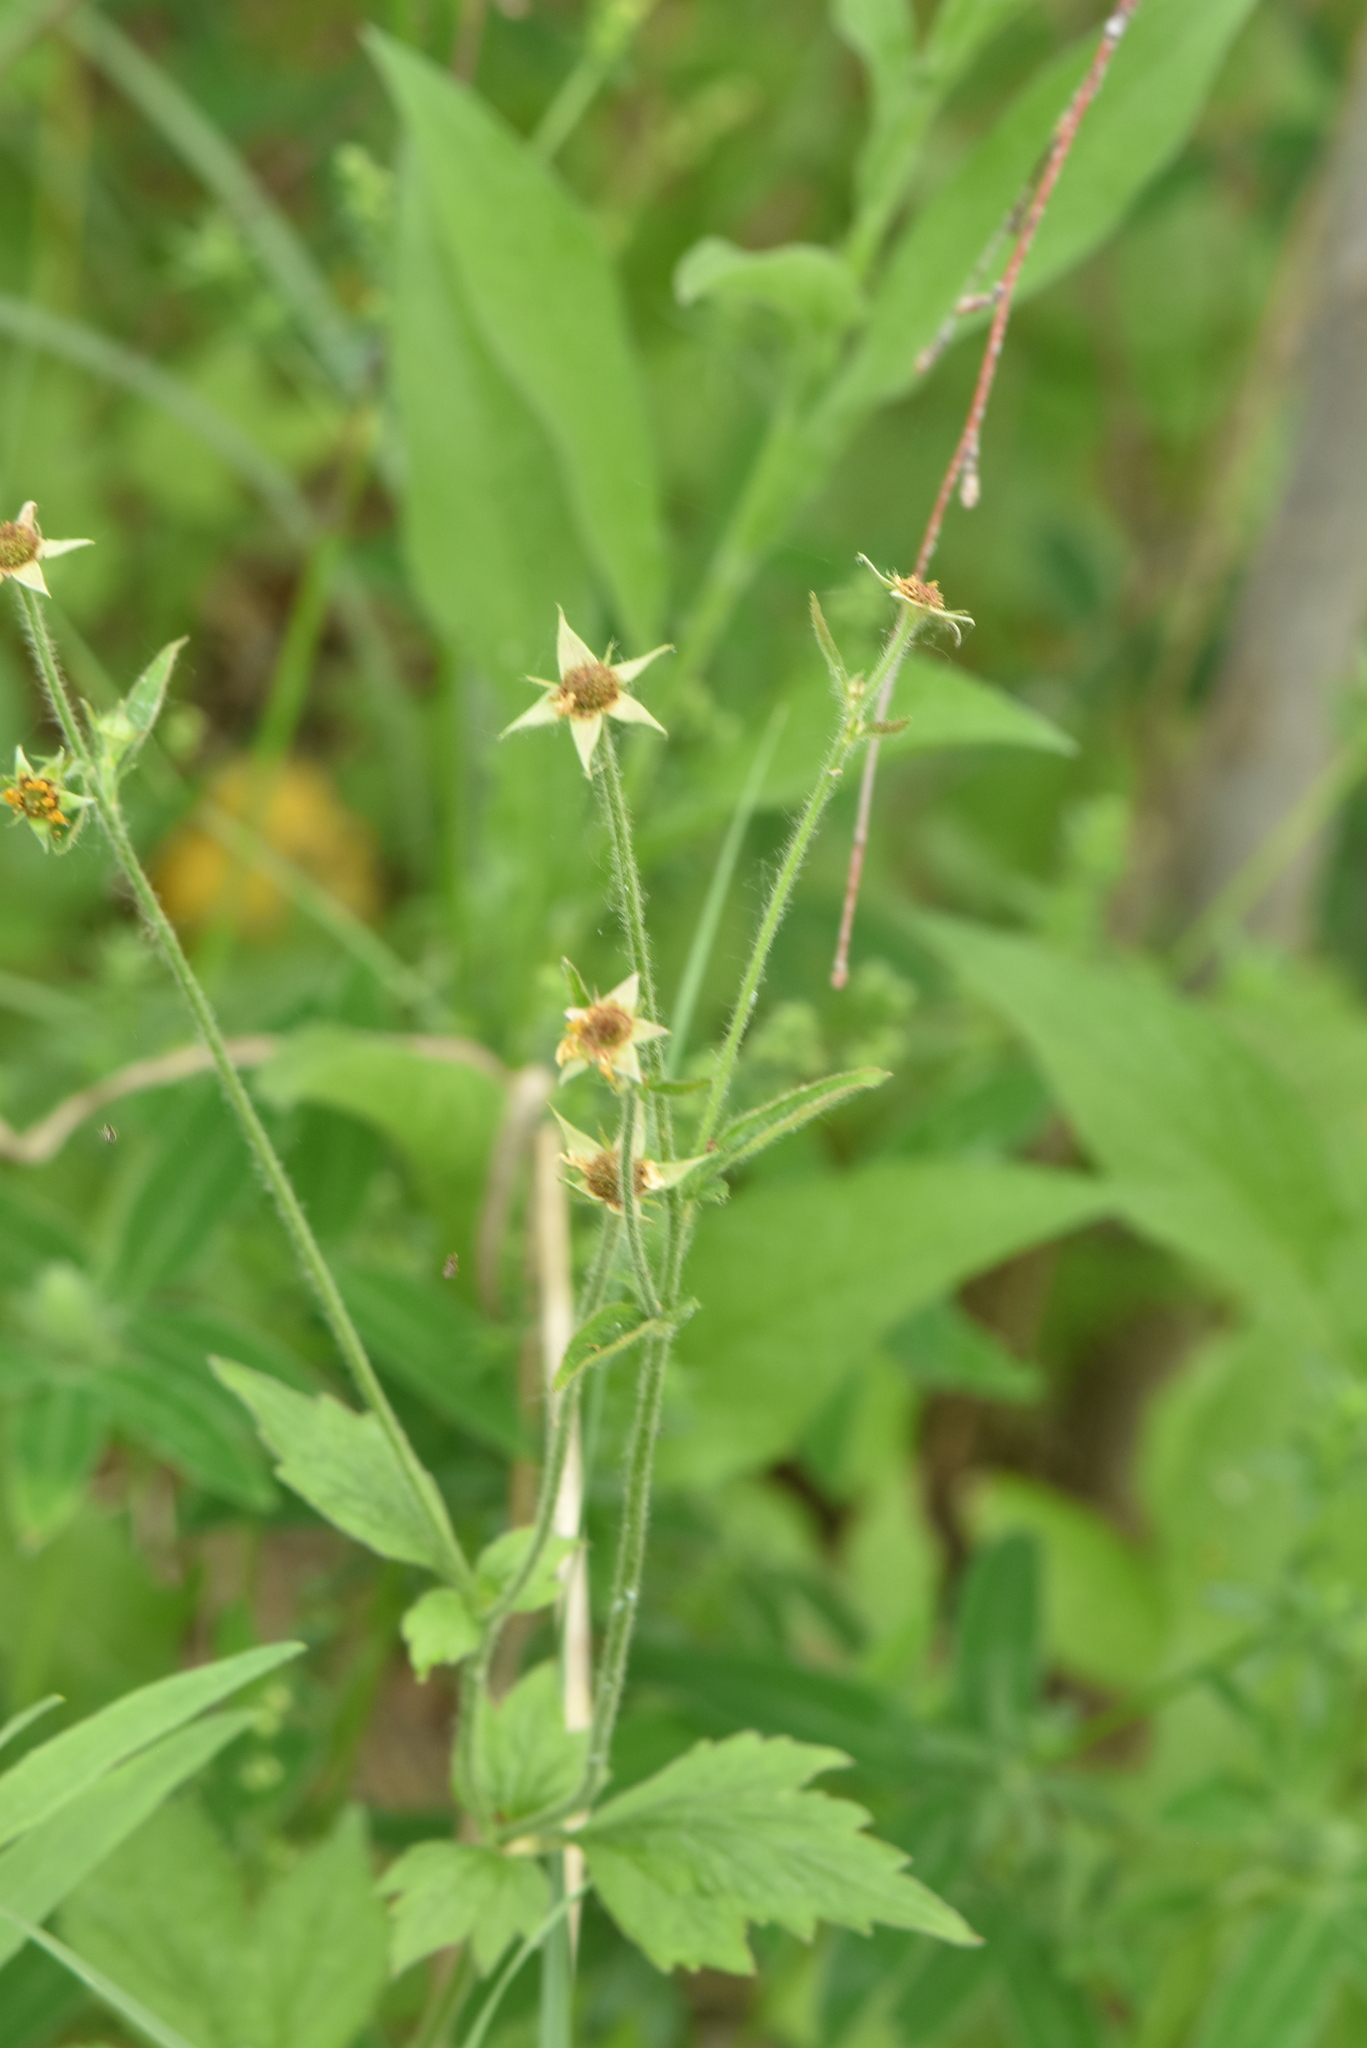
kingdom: Plantae
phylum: Tracheophyta
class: Magnoliopsida
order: Rosales
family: Rosaceae
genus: Geum
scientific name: Geum urbanum
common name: Wood avens
